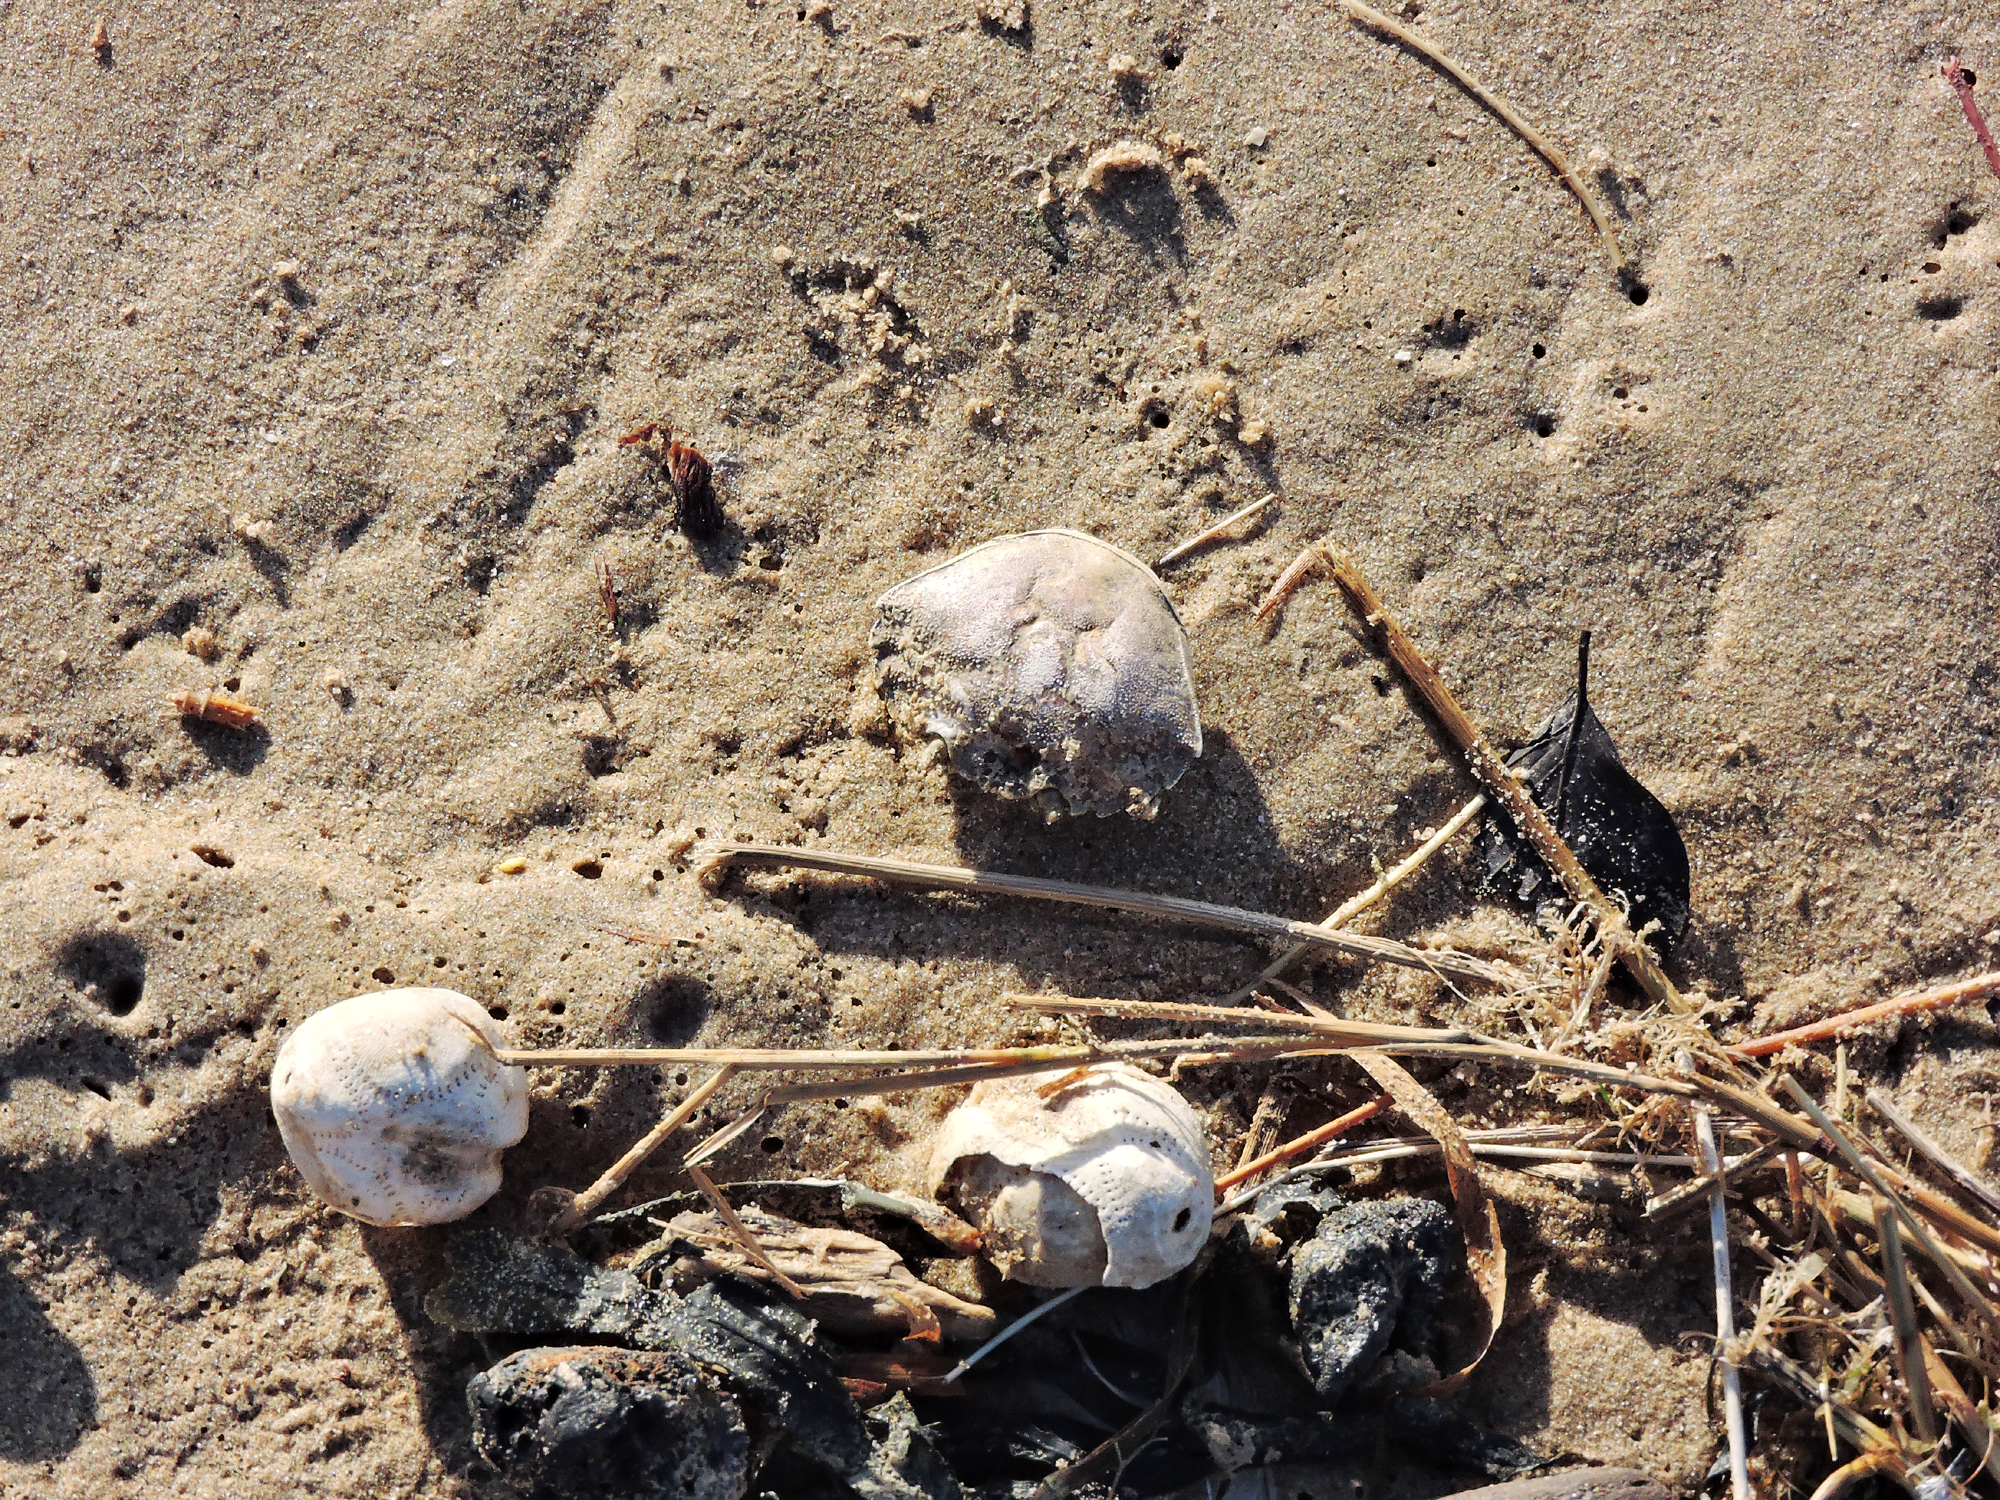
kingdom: Animalia
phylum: Echinodermata
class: Echinoidea
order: Spatangoida
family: Loveniidae
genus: Echinocardium
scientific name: Echinocardium cordatum
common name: Heart-urchin
